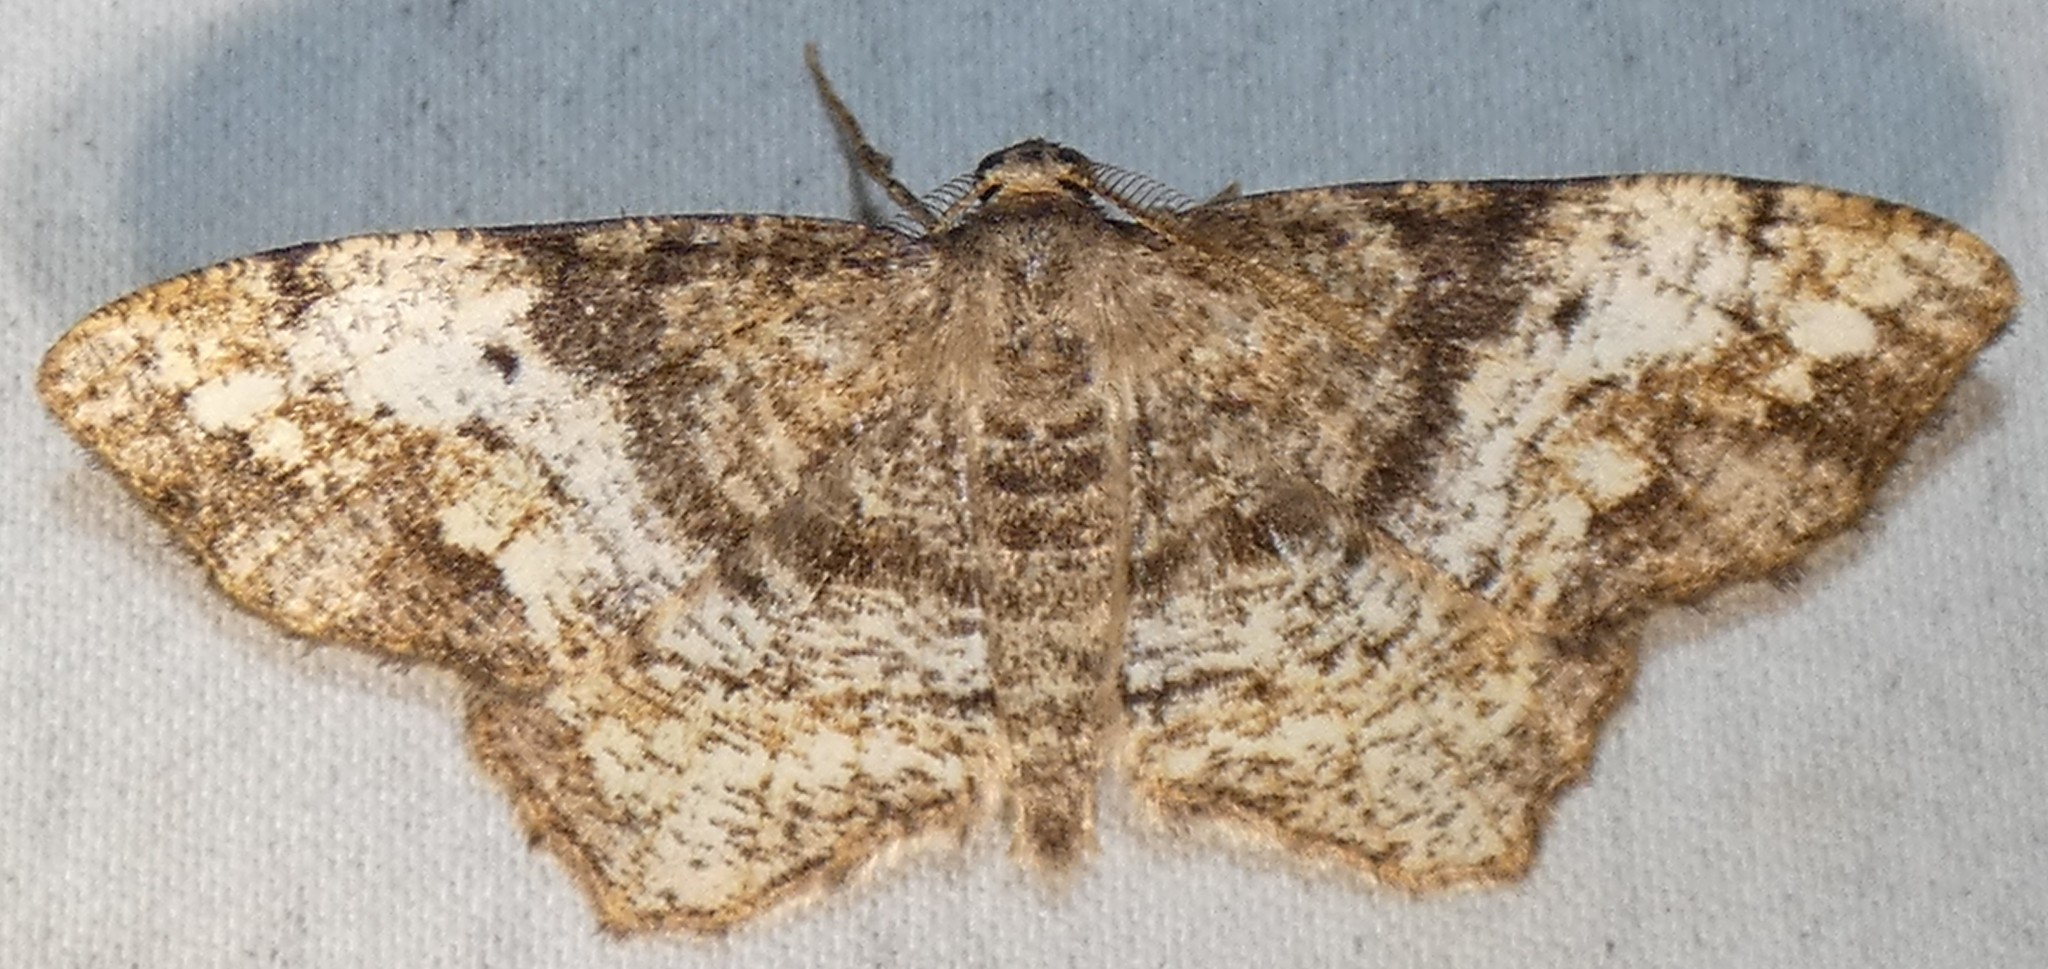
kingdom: Animalia
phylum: Arthropoda
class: Insecta
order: Lepidoptera
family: Geometridae
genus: Hypagyrtis
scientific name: Hypagyrtis unipunctata
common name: One-spotted variant
